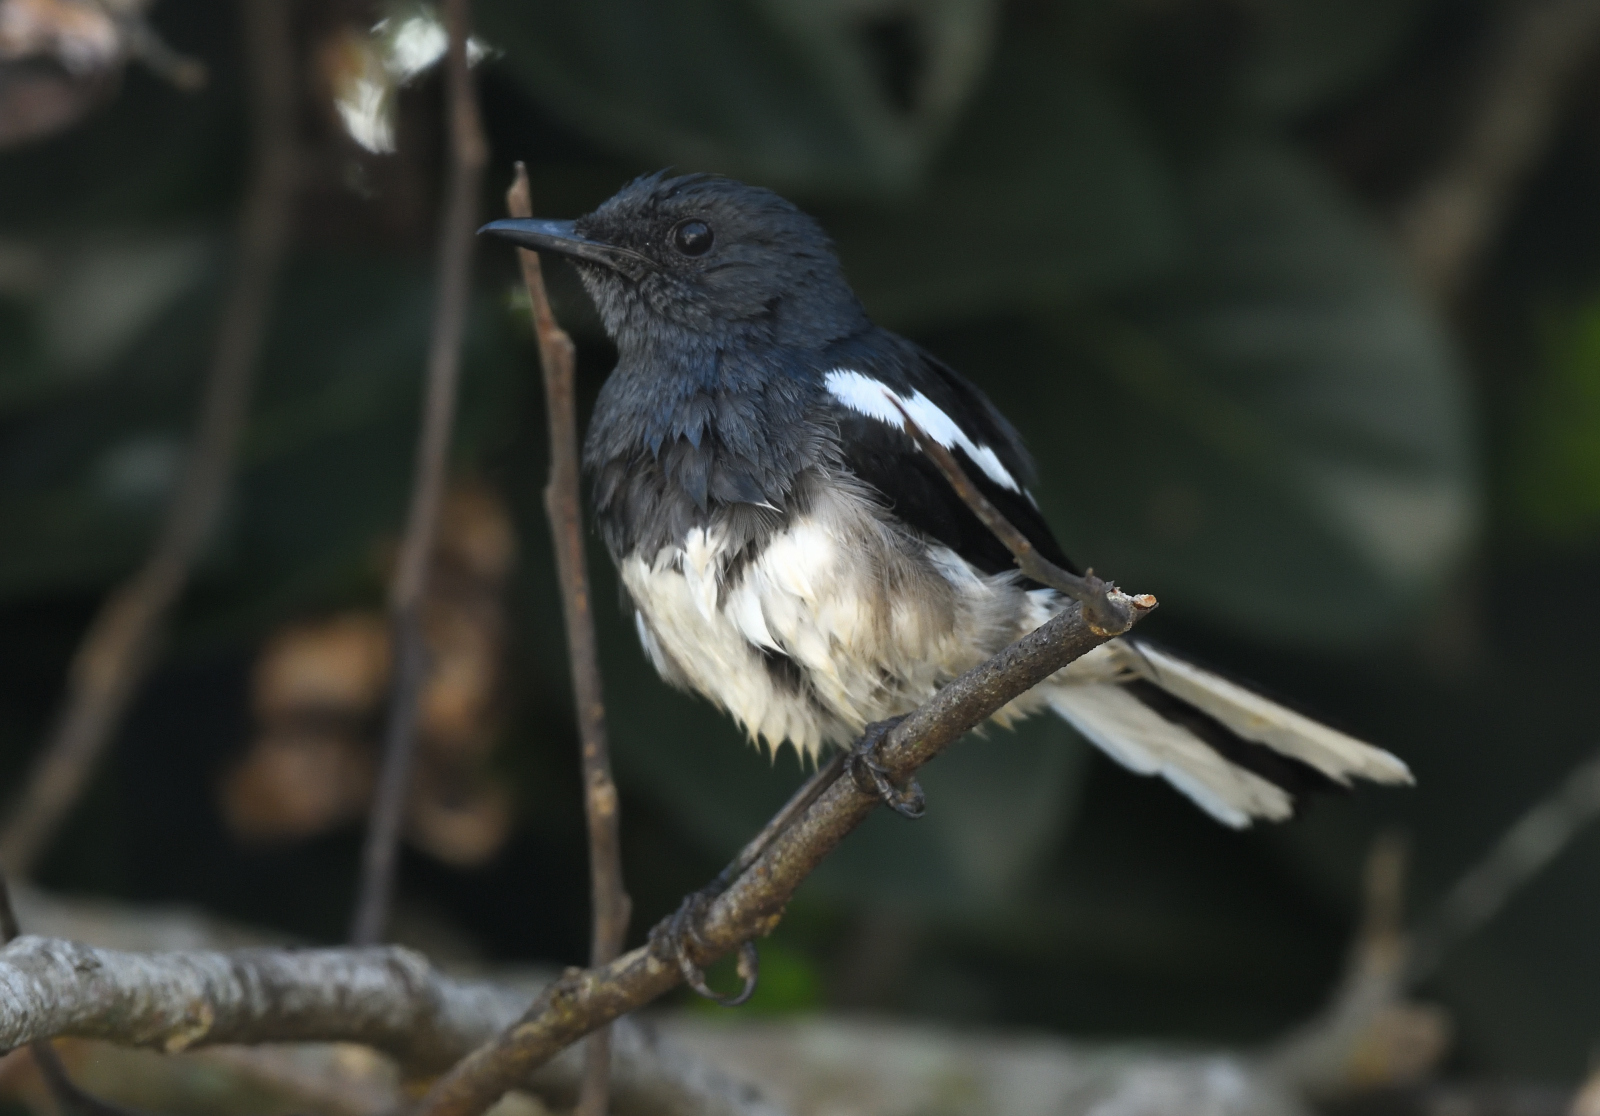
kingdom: Animalia
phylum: Chordata
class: Aves
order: Passeriformes
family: Muscicapidae
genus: Copsychus
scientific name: Copsychus saularis
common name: Oriental magpie-robin
